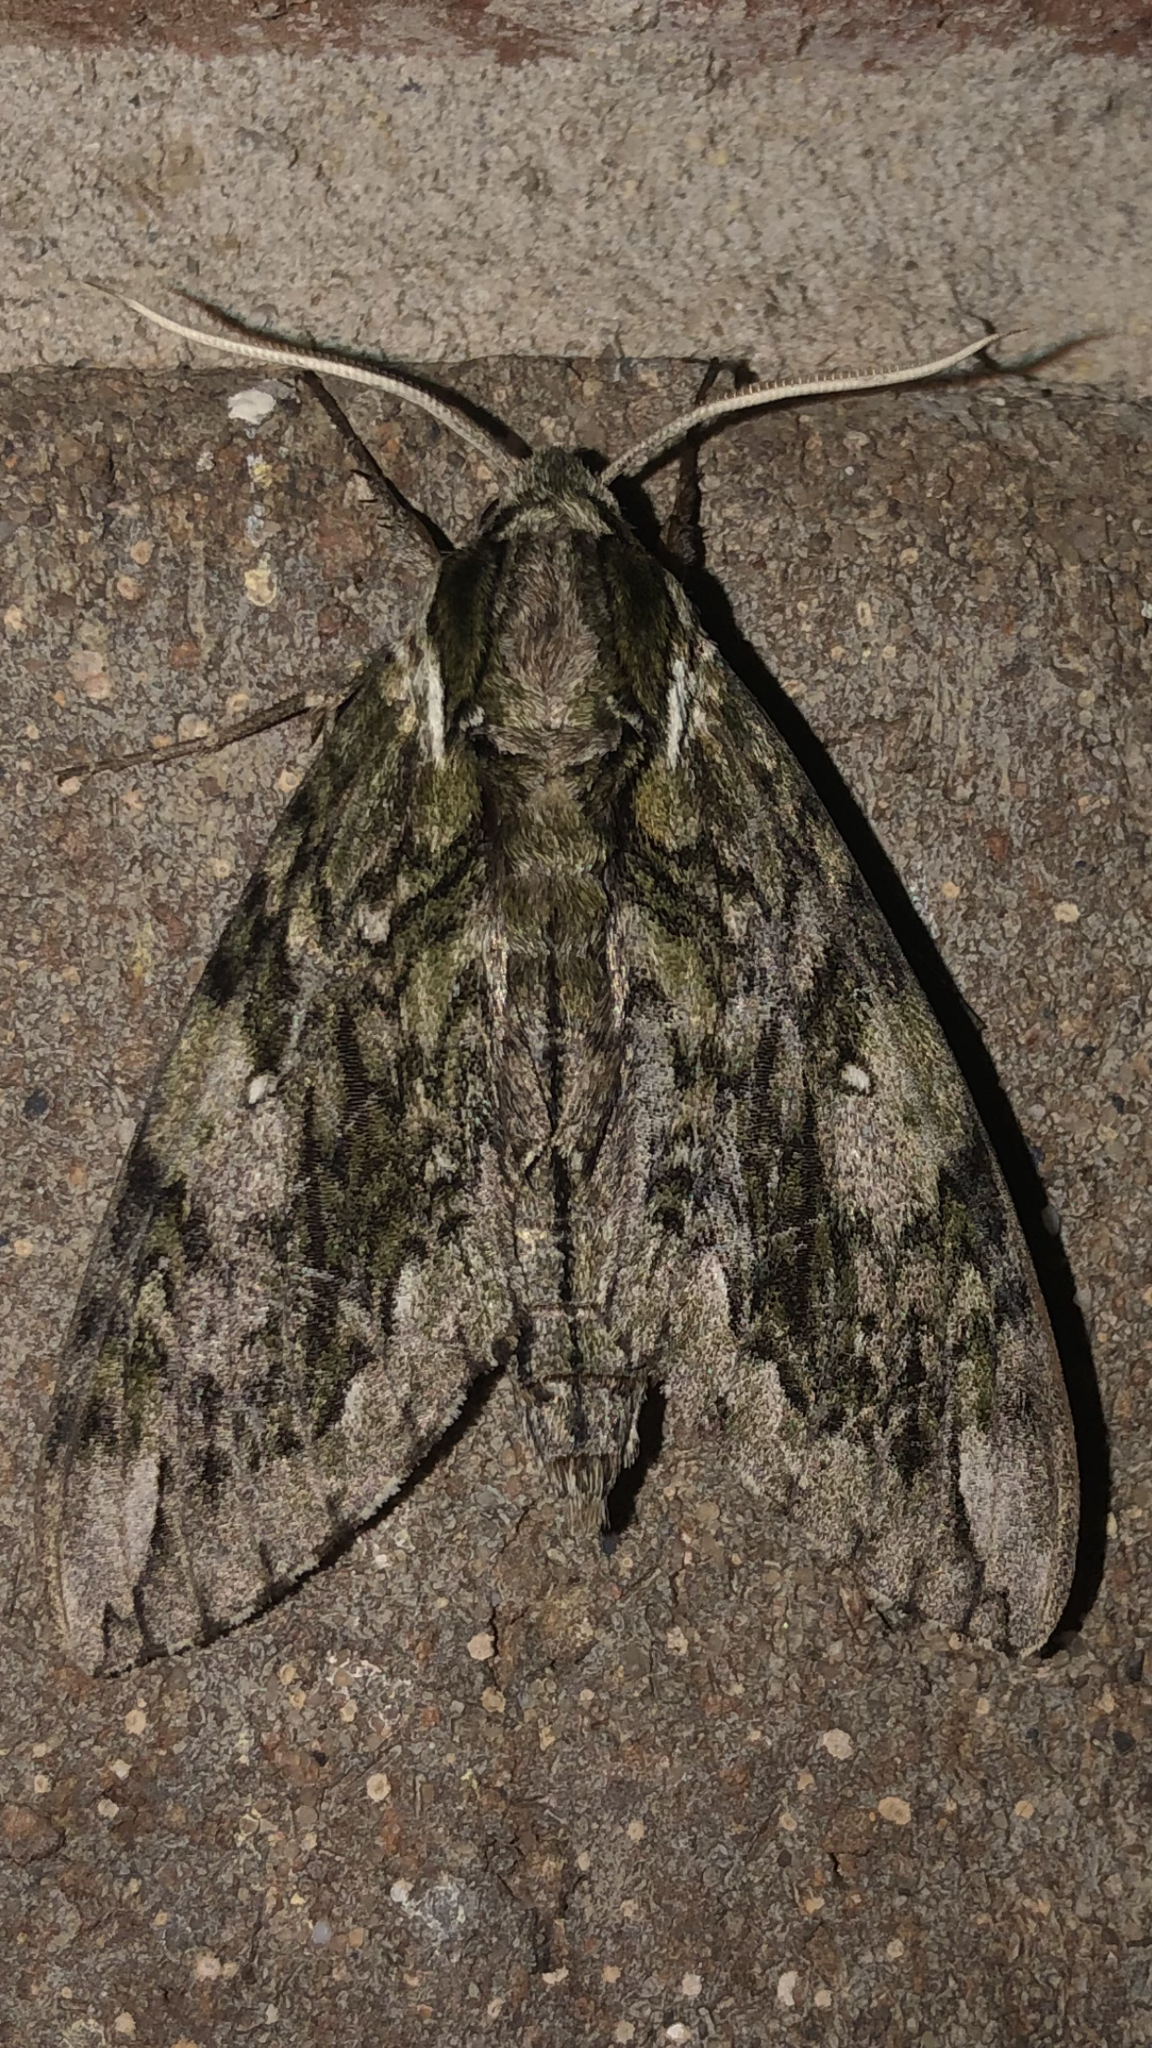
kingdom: Animalia
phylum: Arthropoda
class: Insecta
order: Lepidoptera
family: Sphingidae
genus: Ceratomia
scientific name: Ceratomia hageni
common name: Hagen's sphinx
